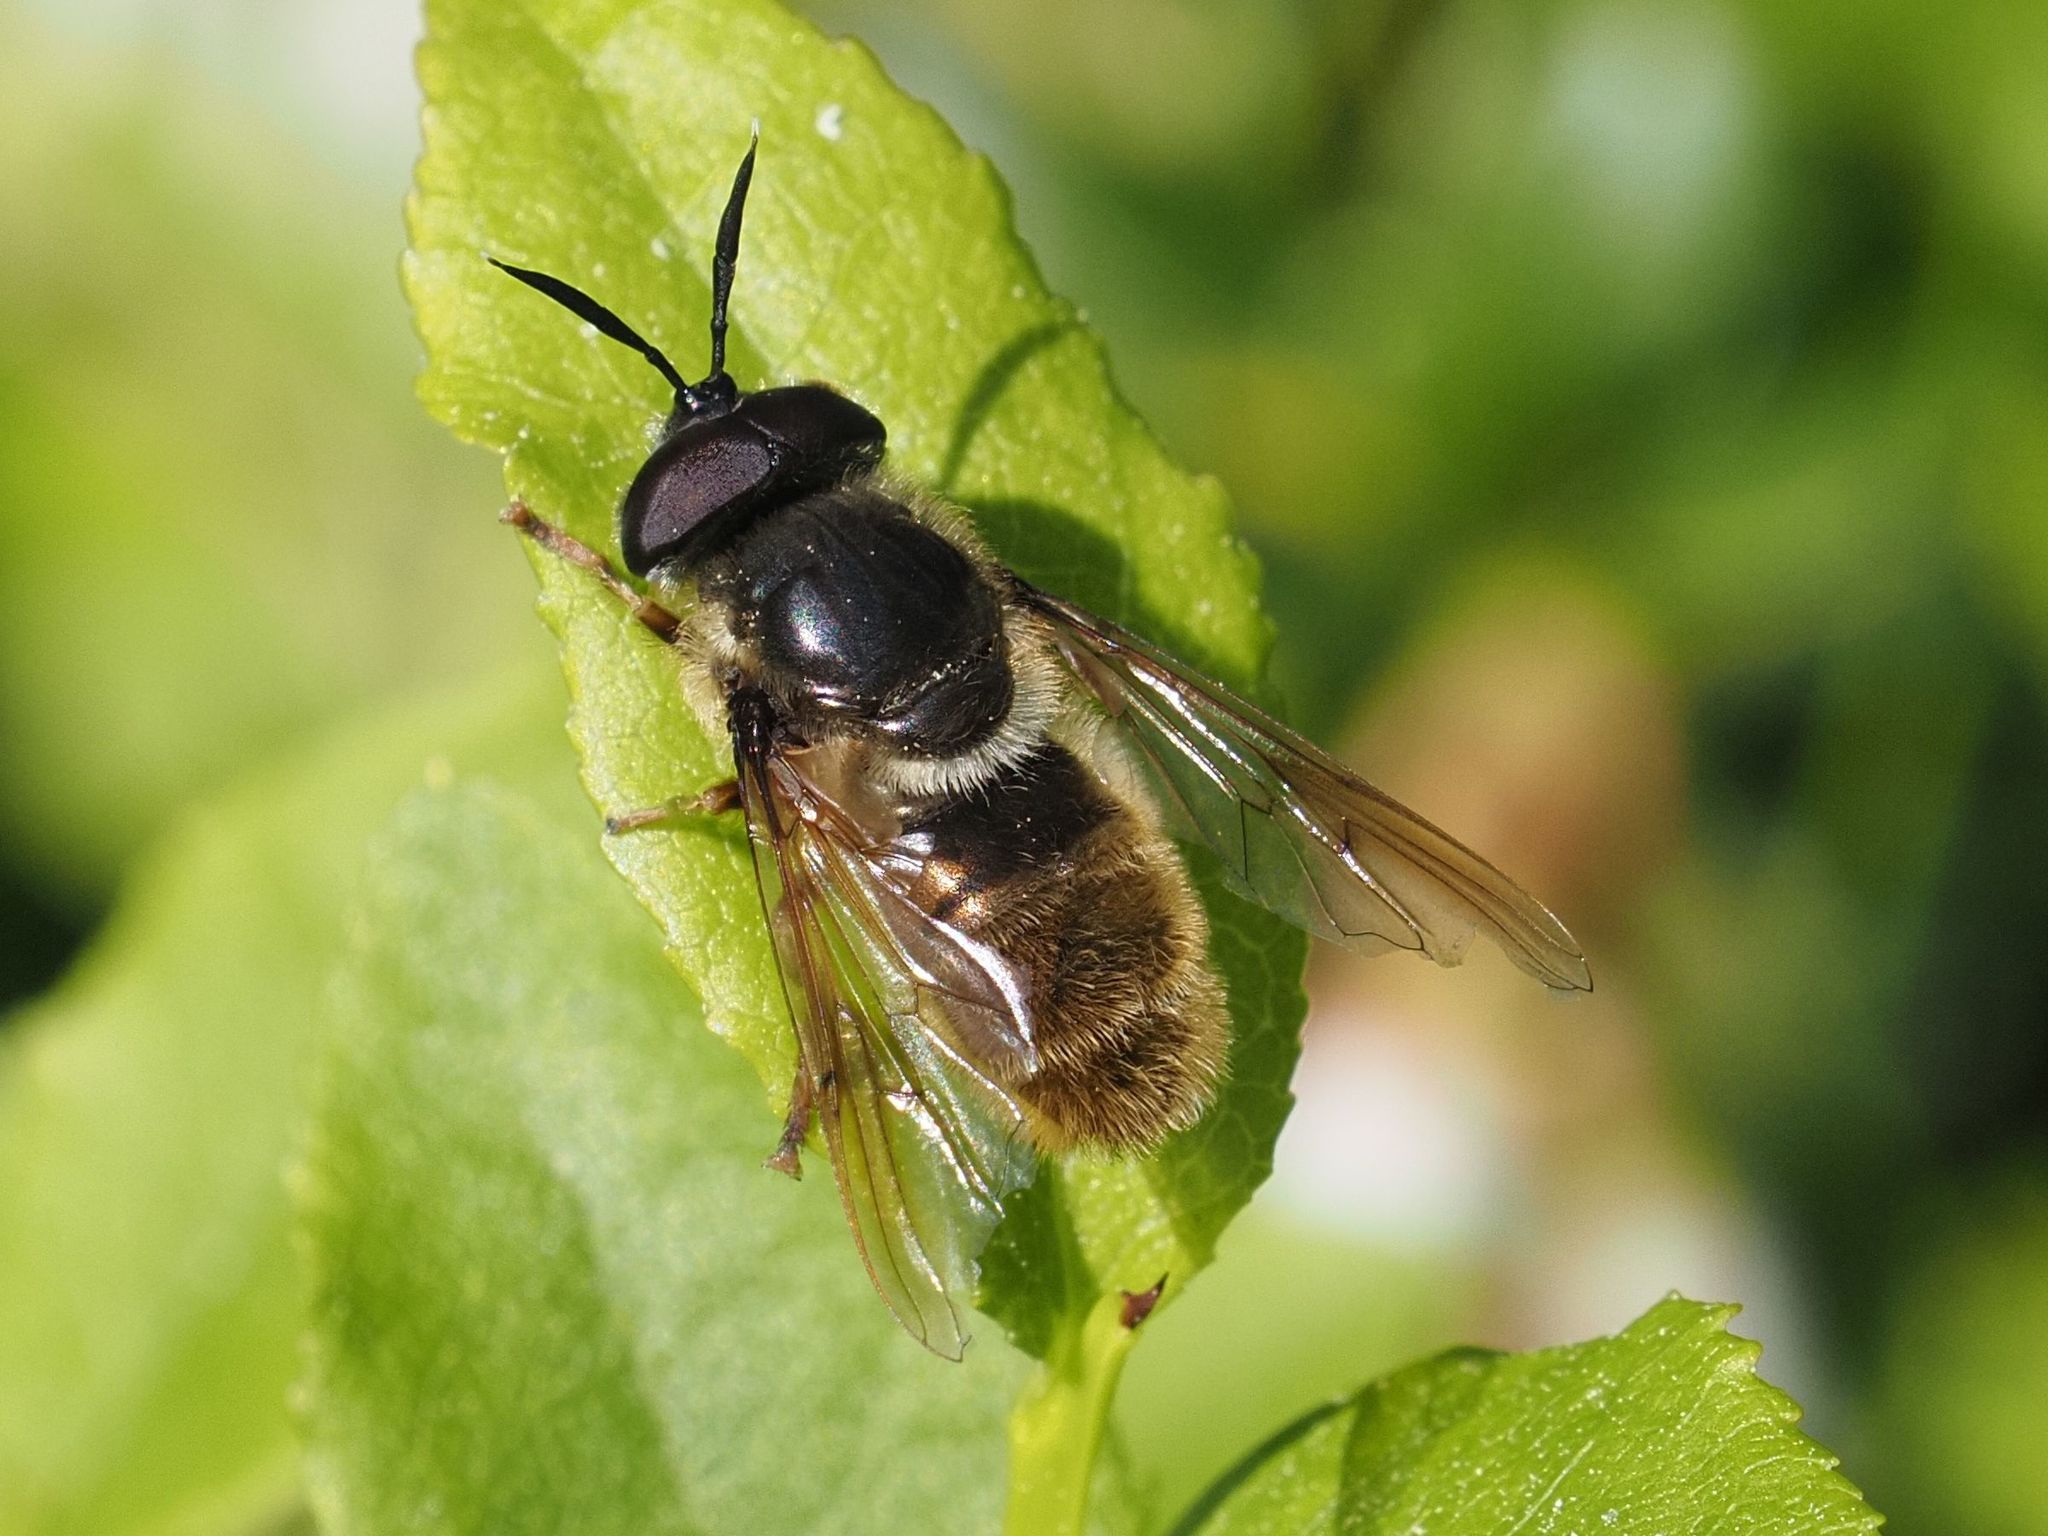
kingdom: Animalia
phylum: Arthropoda
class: Insecta
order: Diptera
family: Syrphidae
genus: Callicera
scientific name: Callicera aenea
